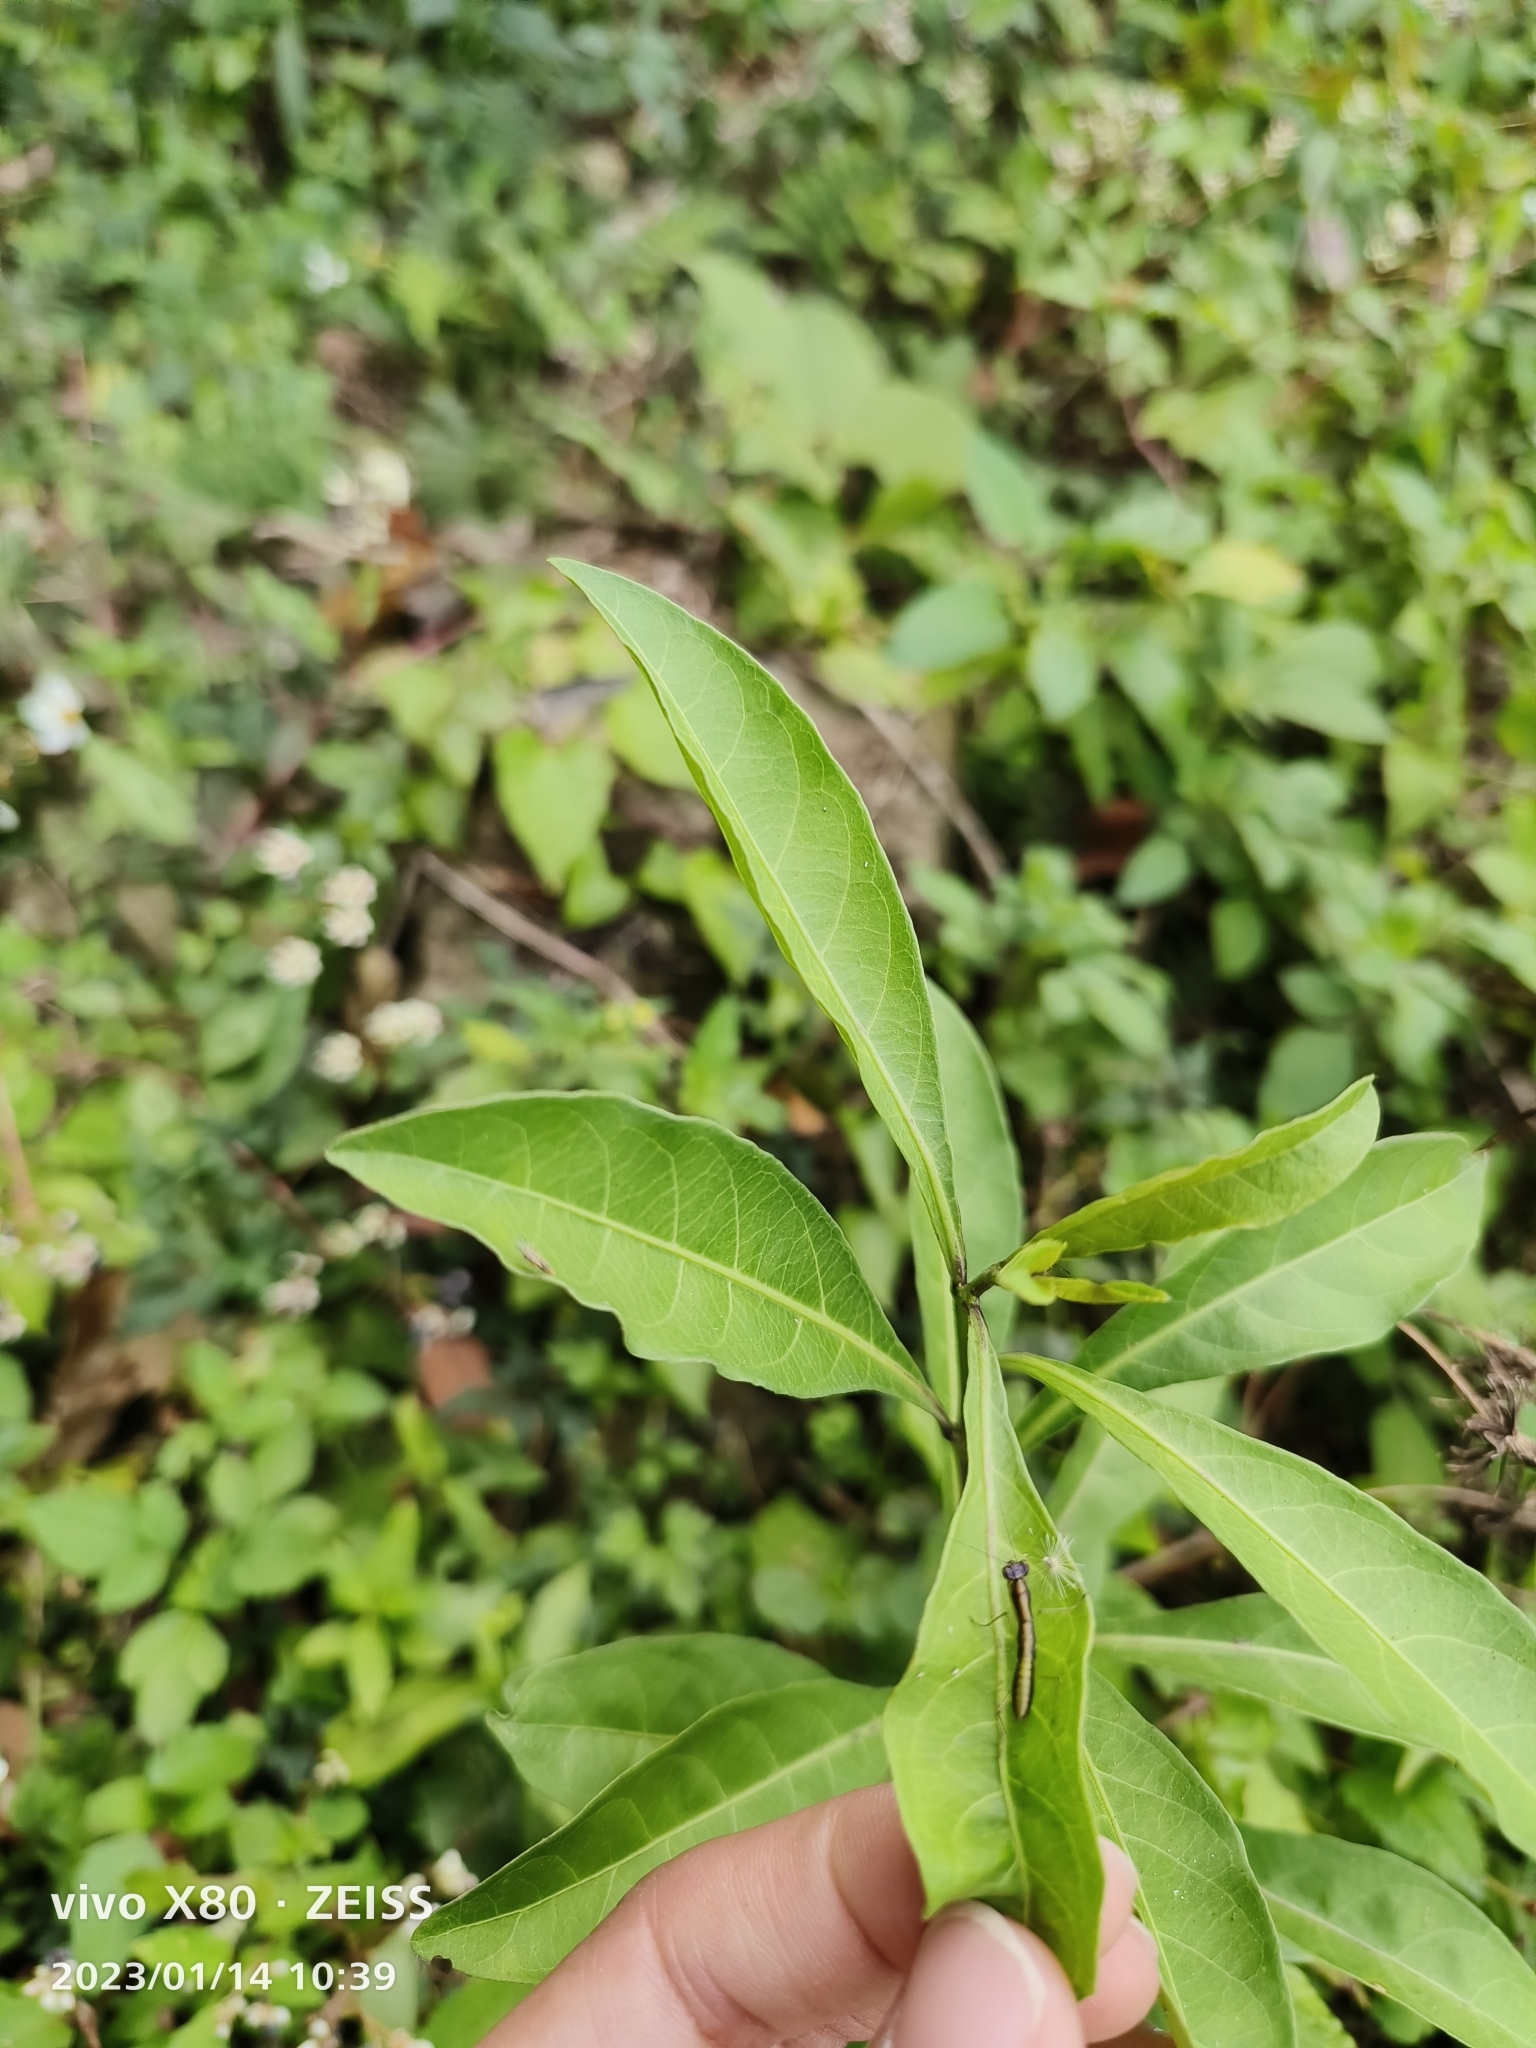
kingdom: Plantae
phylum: Tracheophyta
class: Magnoliopsida
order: Solanales
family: Solanaceae
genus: Solanum
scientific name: Solanum diphyllum
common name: Twoleaf nightshade
